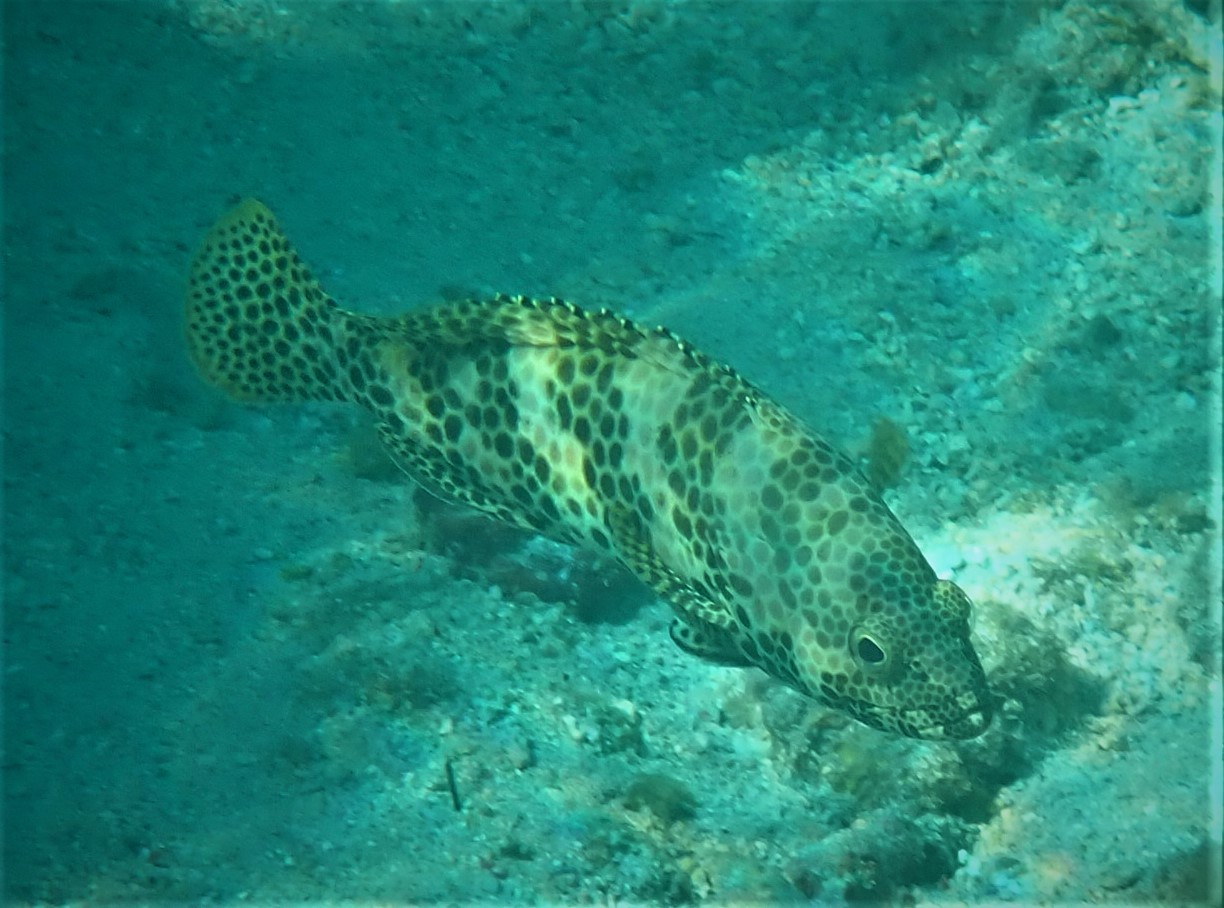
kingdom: Animalia
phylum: Chordata
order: Perciformes
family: Serranidae
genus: Epinephelus
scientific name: Epinephelus merra
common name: Honeycomb grouper
